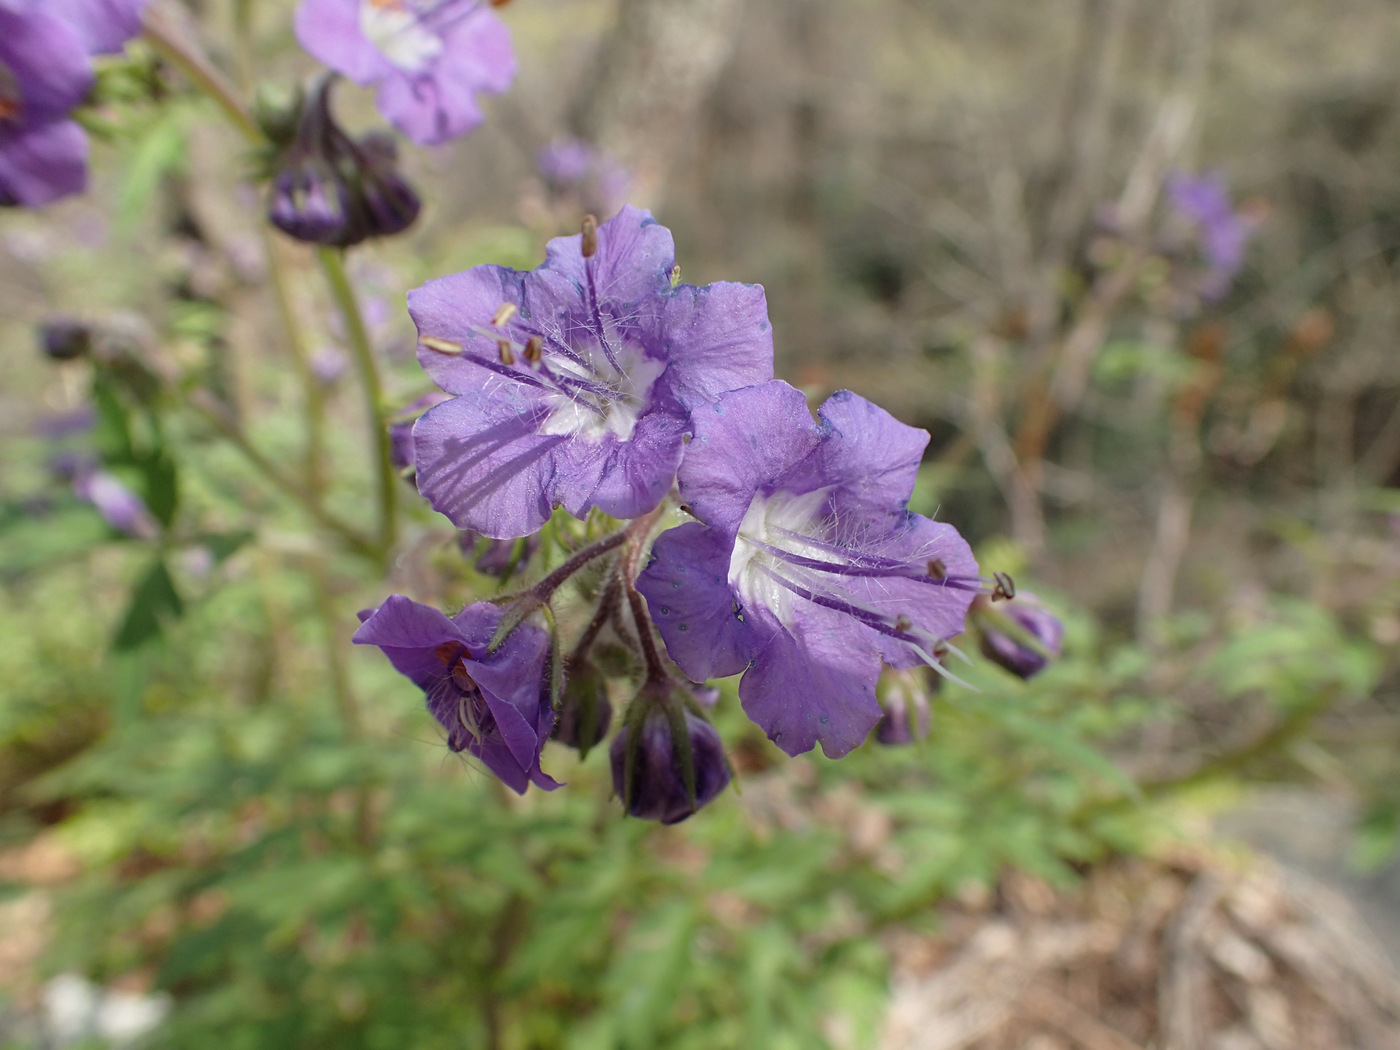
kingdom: Plantae
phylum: Tracheophyta
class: Magnoliopsida
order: Boraginales
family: Hydrophyllaceae
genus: Phacelia
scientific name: Phacelia bipinnatifida
